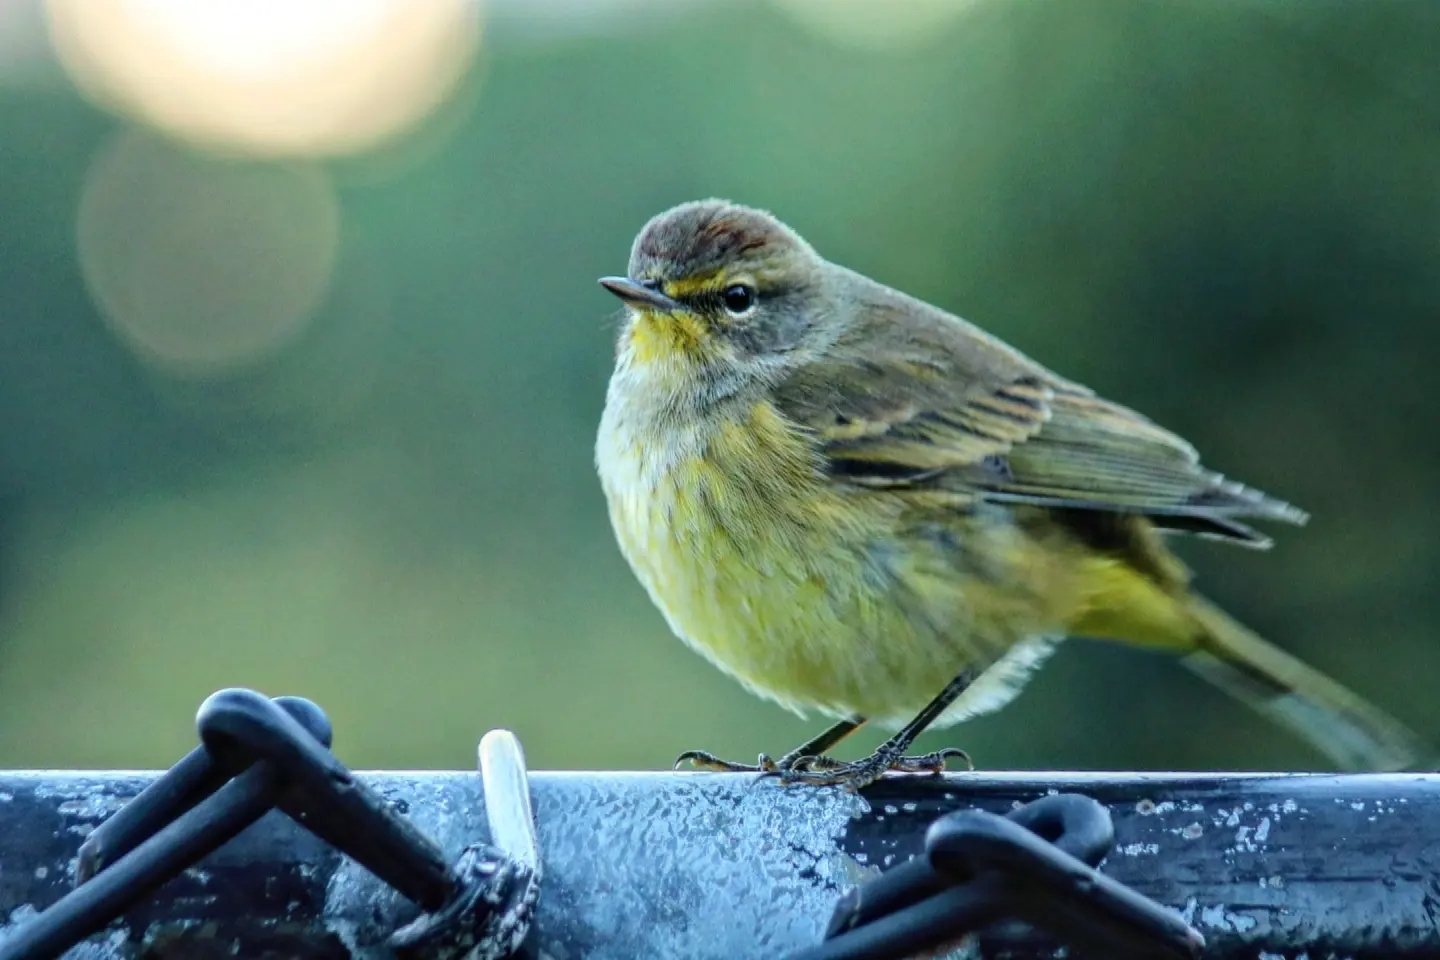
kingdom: Animalia
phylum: Chordata
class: Aves
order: Passeriformes
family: Parulidae
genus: Setophaga
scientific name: Setophaga palmarum
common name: Palm warbler
